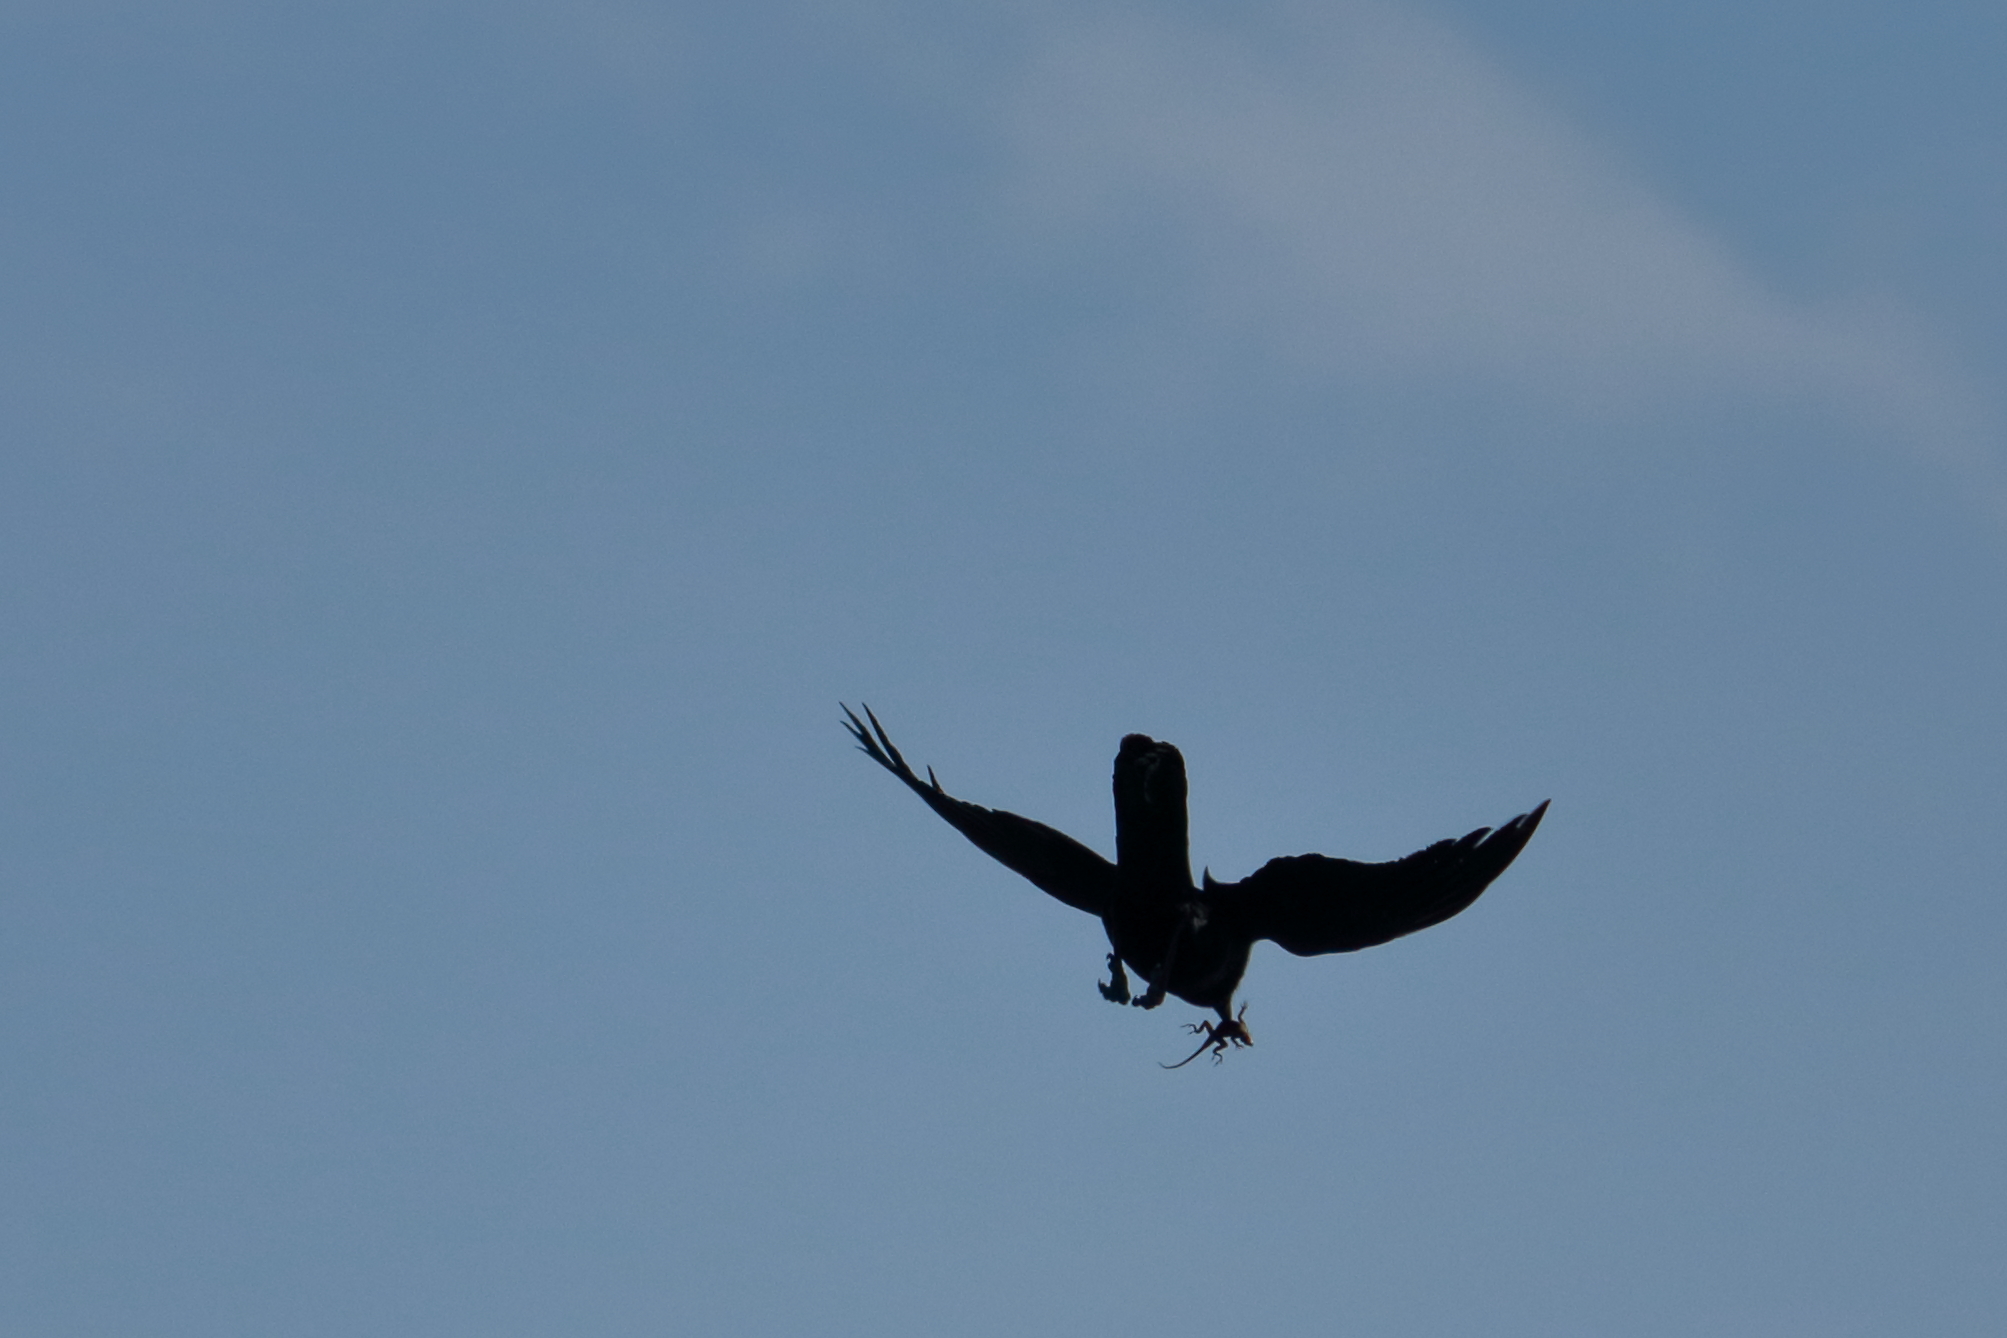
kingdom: Animalia
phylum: Chordata
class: Aves
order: Passeriformes
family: Corvidae
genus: Corvus
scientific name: Corvus
